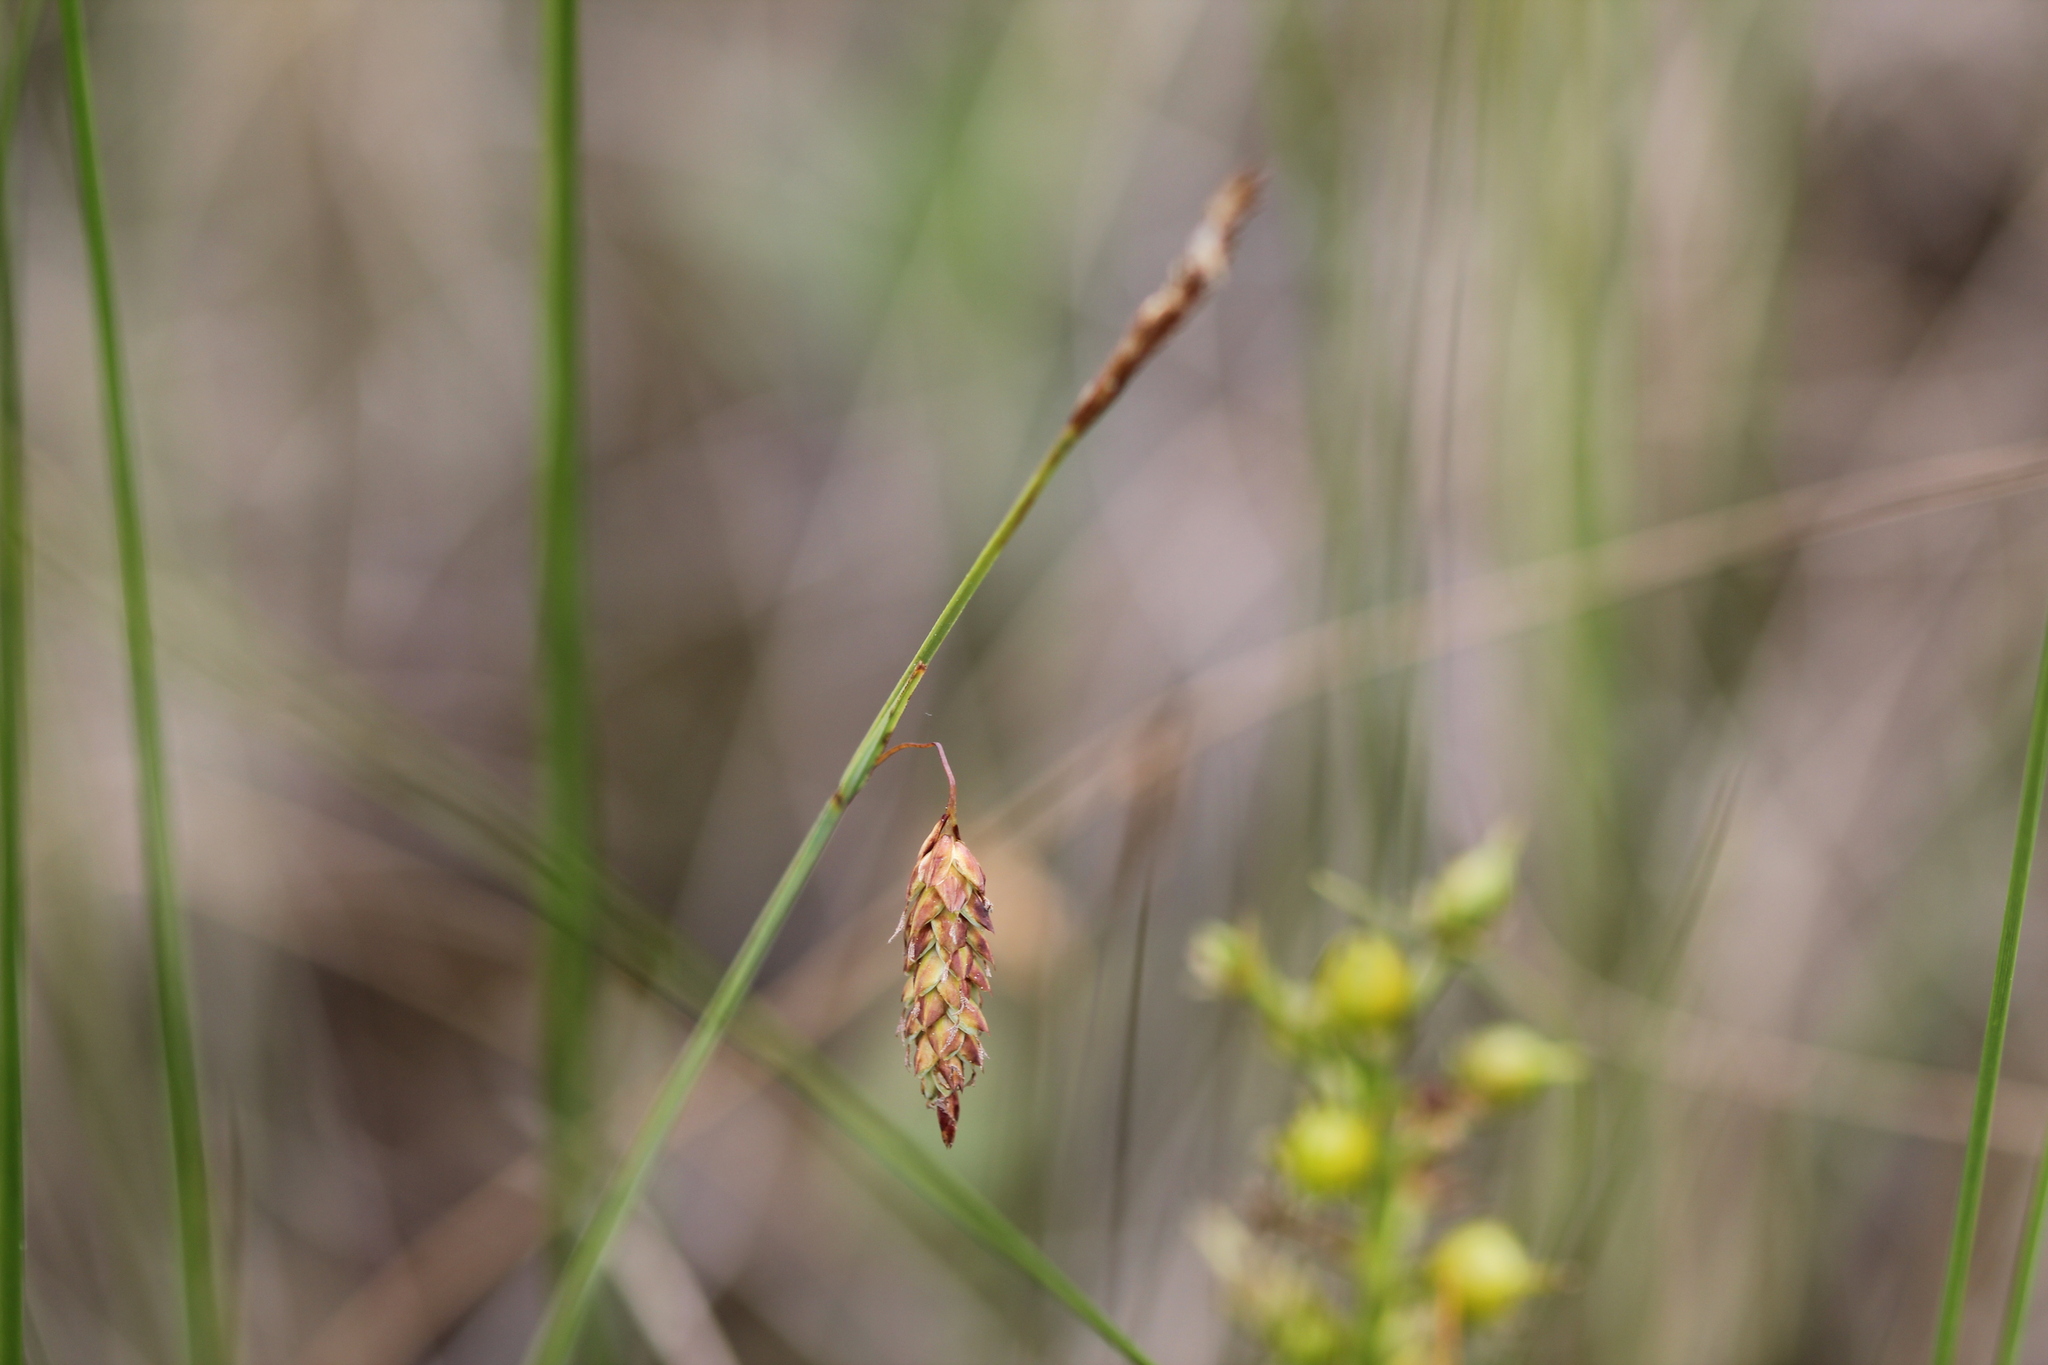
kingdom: Plantae
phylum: Tracheophyta
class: Liliopsida
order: Poales
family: Cyperaceae
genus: Carex
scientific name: Carex limosa
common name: Bog sedge
